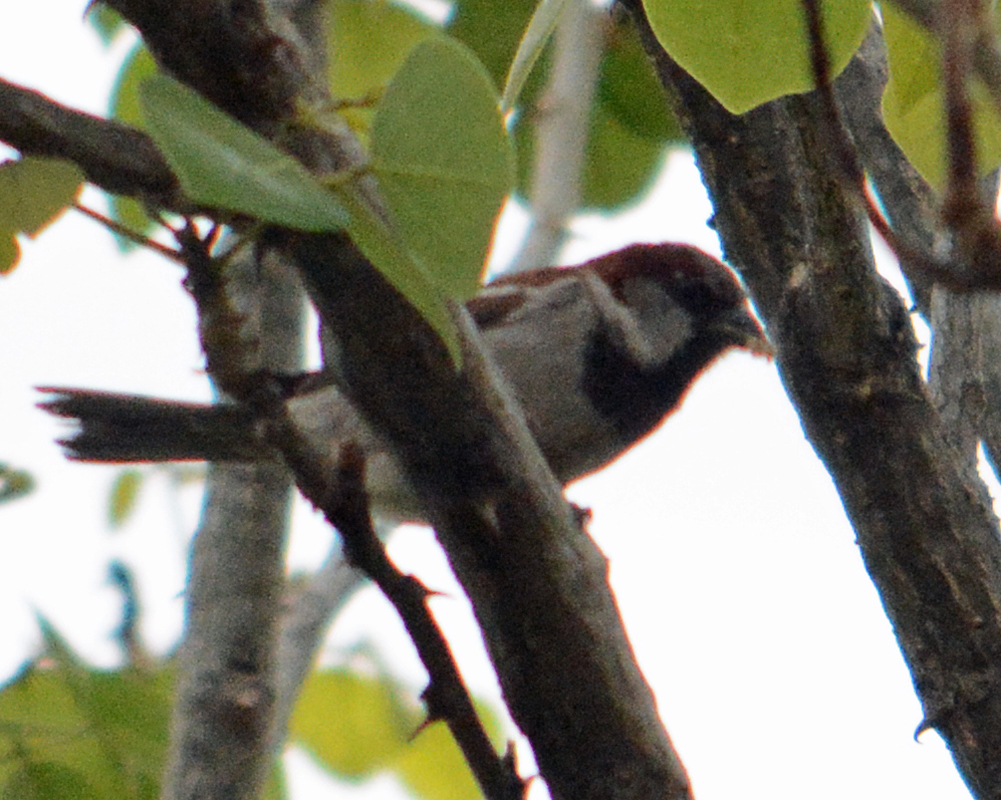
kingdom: Animalia
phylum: Chordata
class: Aves
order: Passeriformes
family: Passeridae
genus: Passer
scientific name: Passer domesticus
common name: House sparrow
